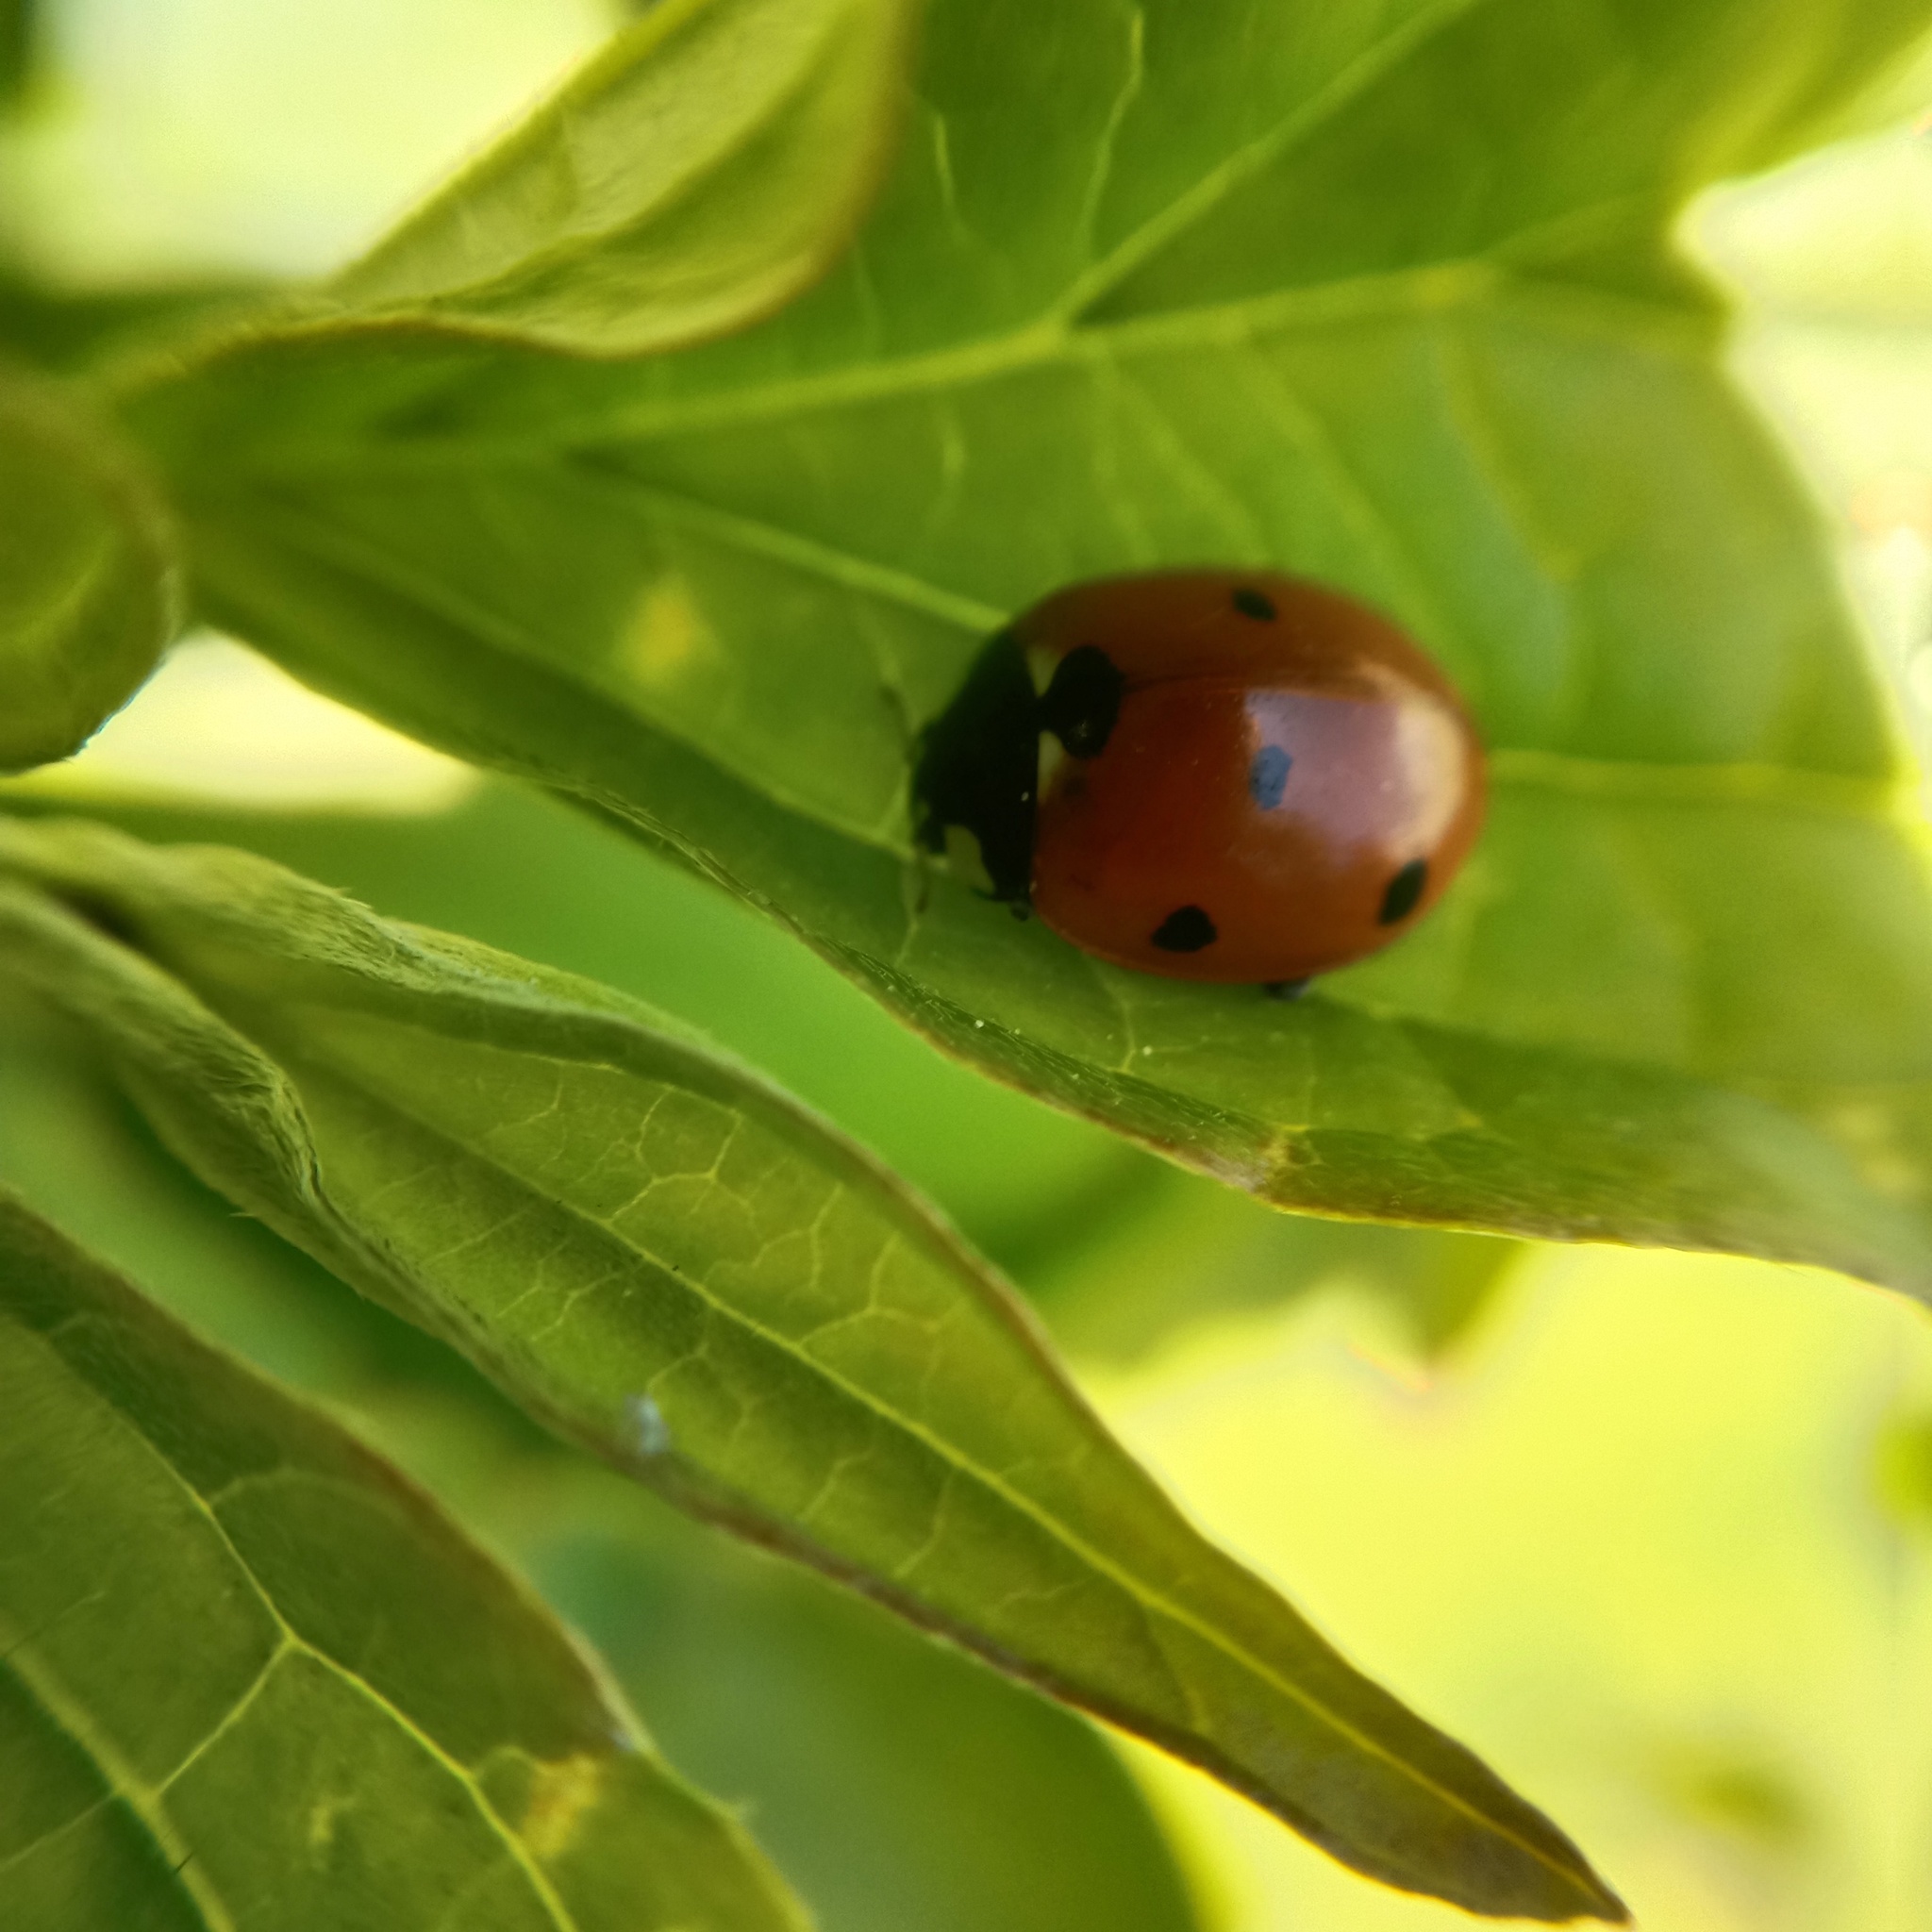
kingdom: Animalia
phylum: Arthropoda
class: Insecta
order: Coleoptera
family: Coccinellidae
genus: Coccinella
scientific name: Coccinella septempunctata
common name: Sevenspotted lady beetle
